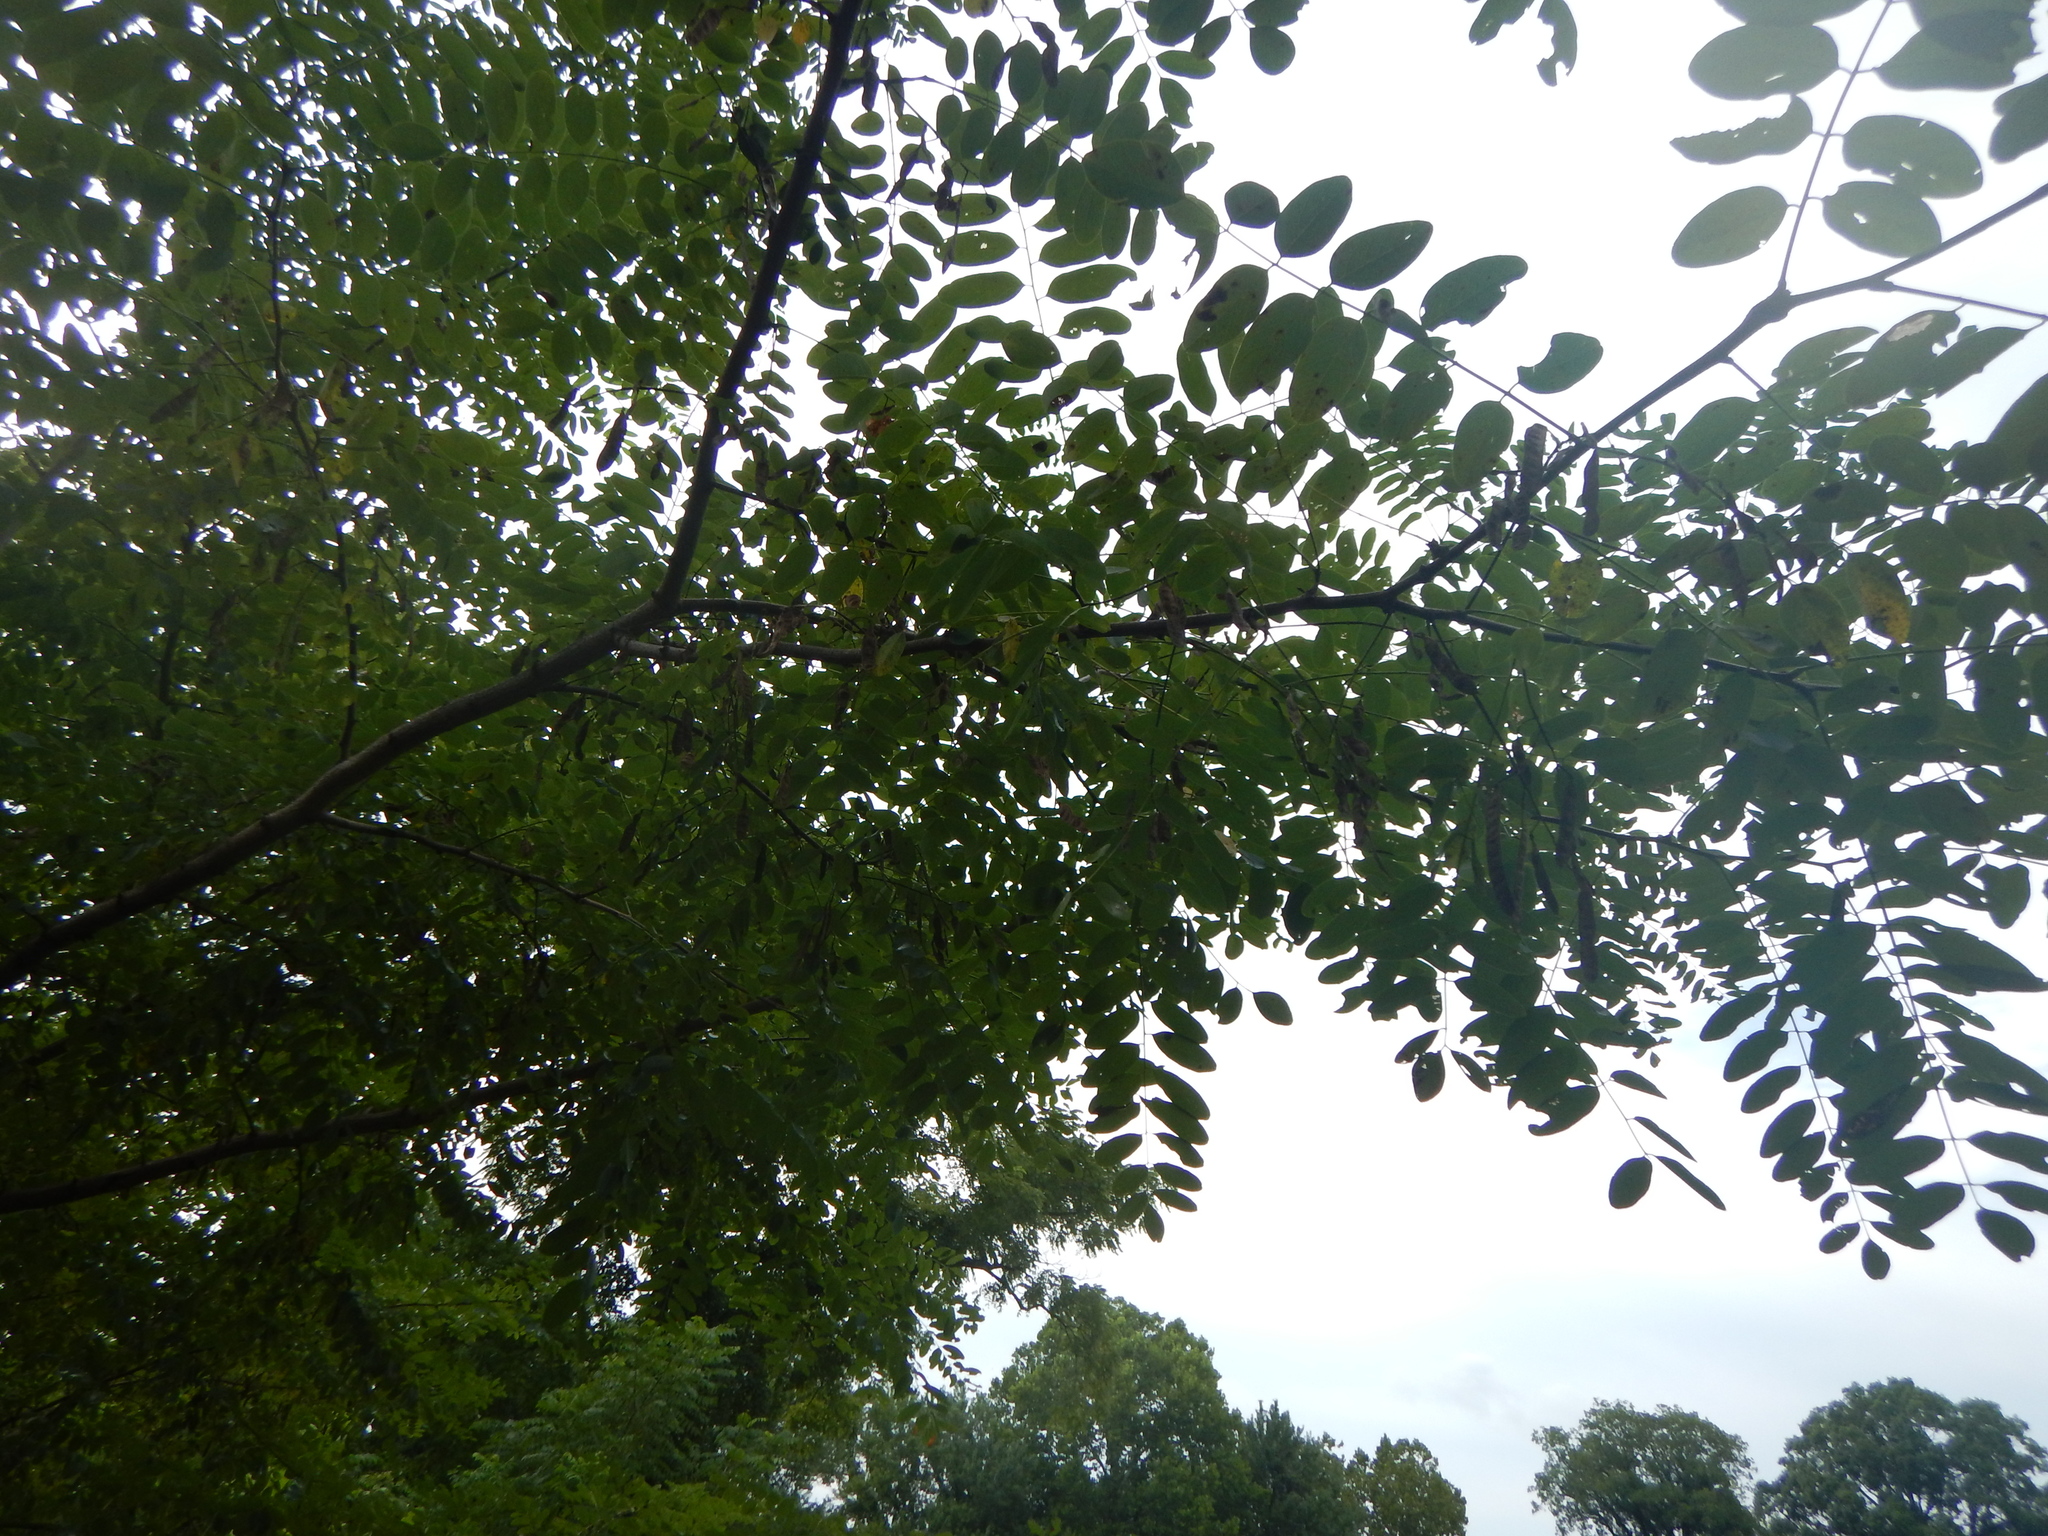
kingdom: Plantae
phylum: Tracheophyta
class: Magnoliopsida
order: Fabales
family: Fabaceae
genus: Robinia
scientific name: Robinia pseudoacacia
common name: Black locust
